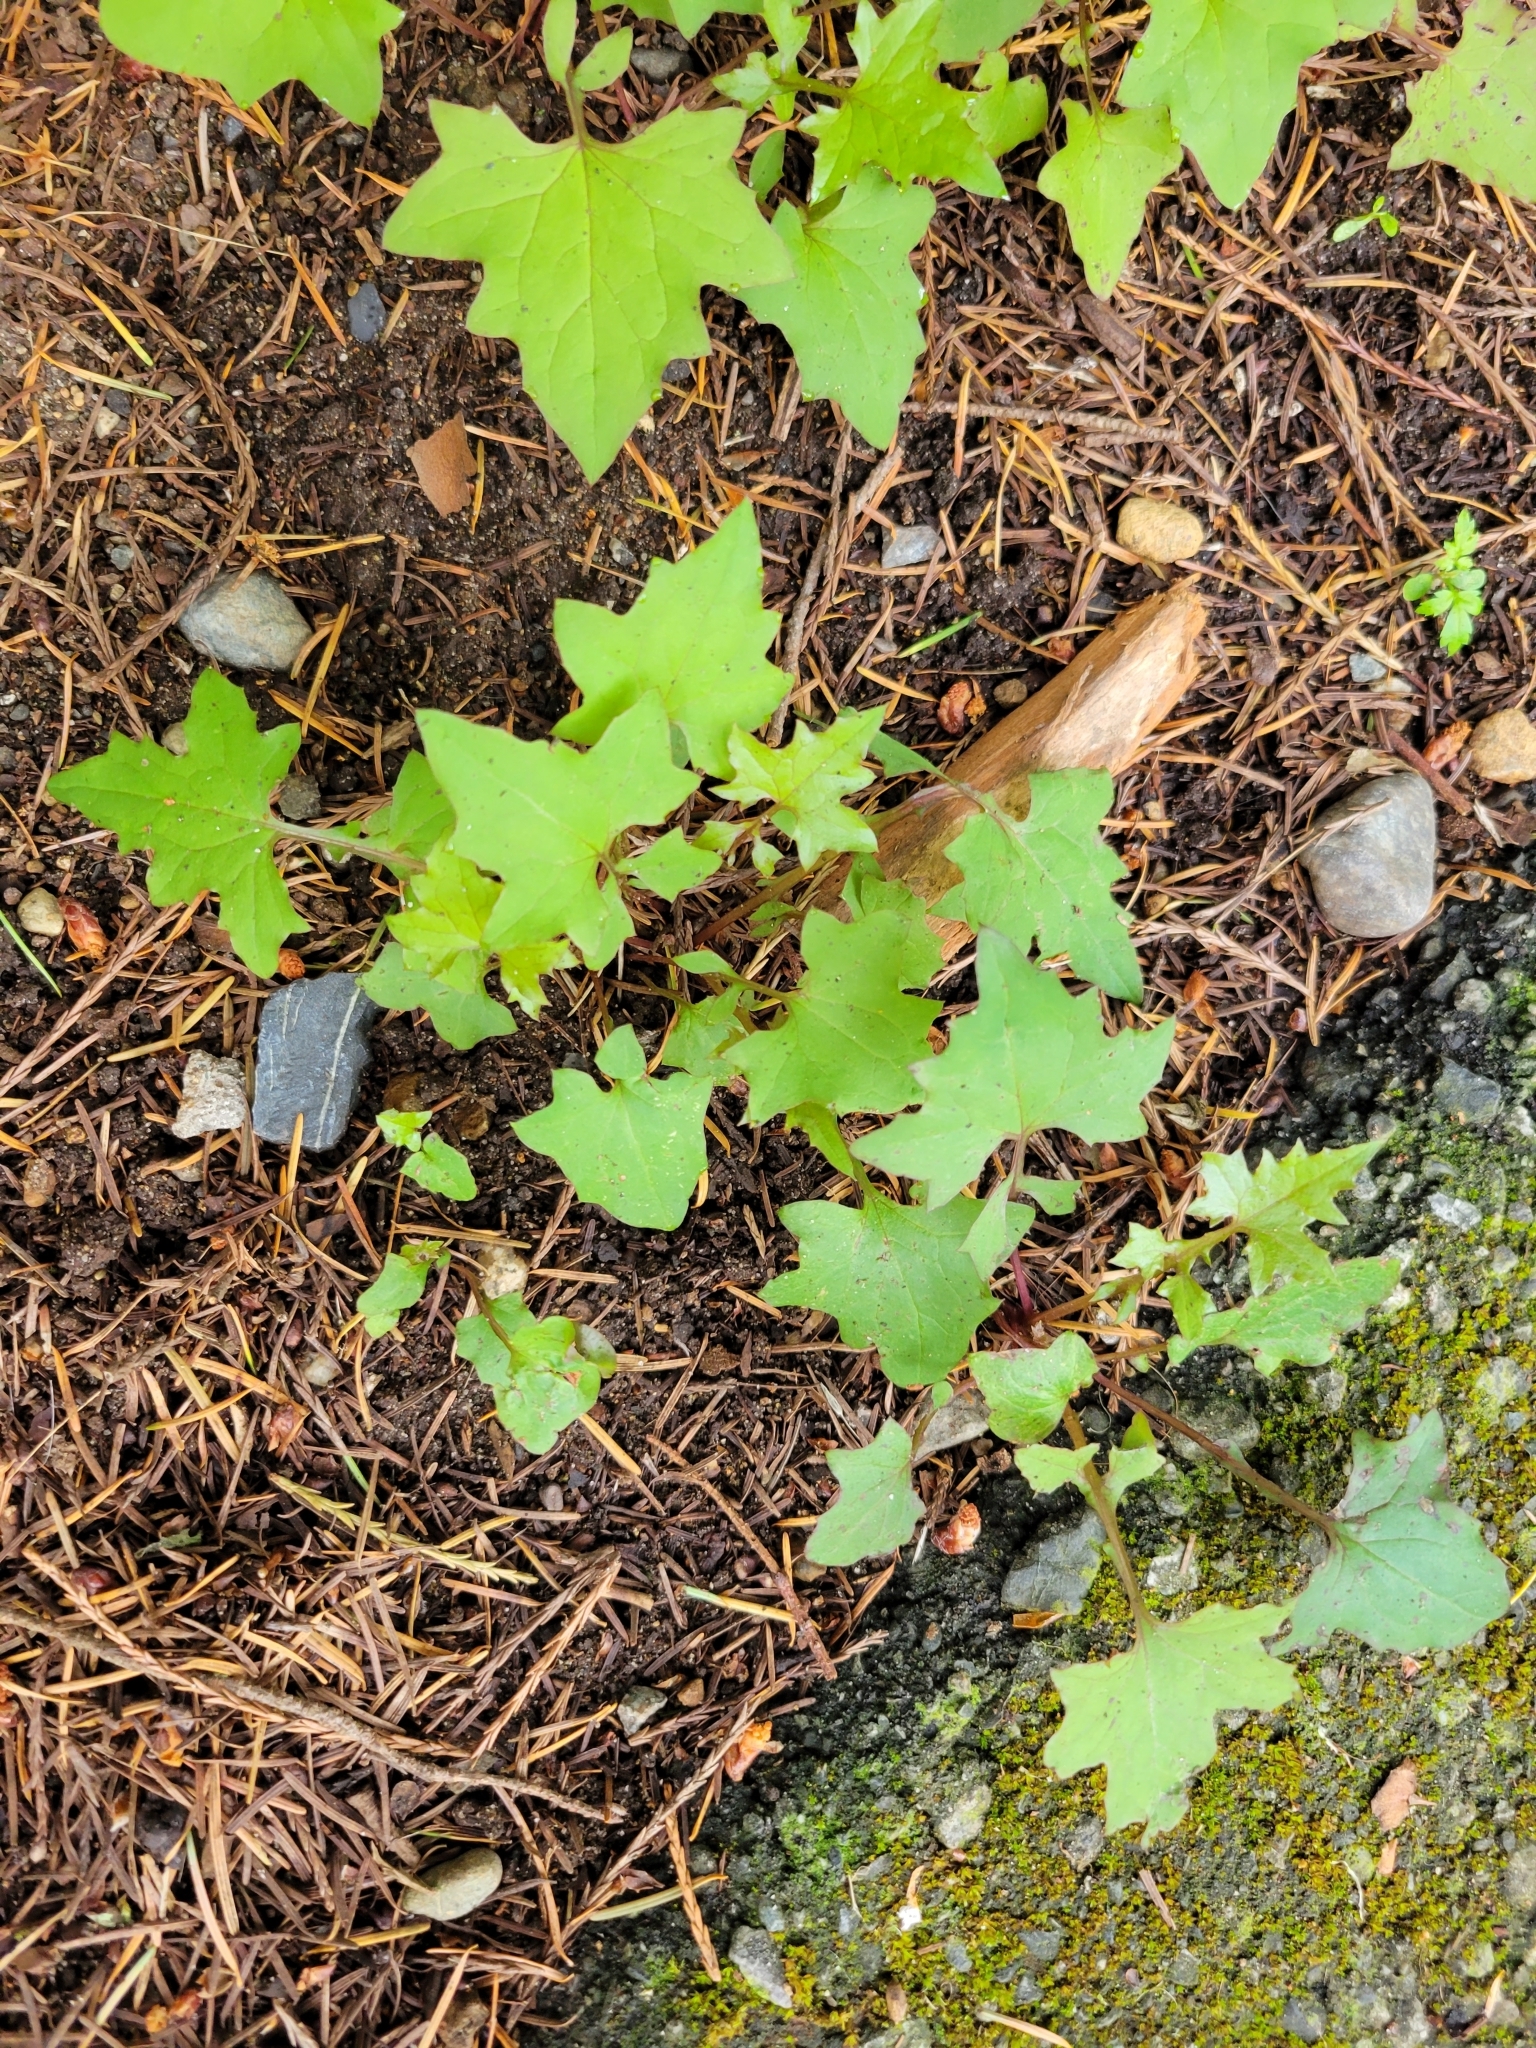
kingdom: Plantae
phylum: Tracheophyta
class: Magnoliopsida
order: Asterales
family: Asteraceae
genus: Mycelis
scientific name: Mycelis muralis
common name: Wall lettuce
